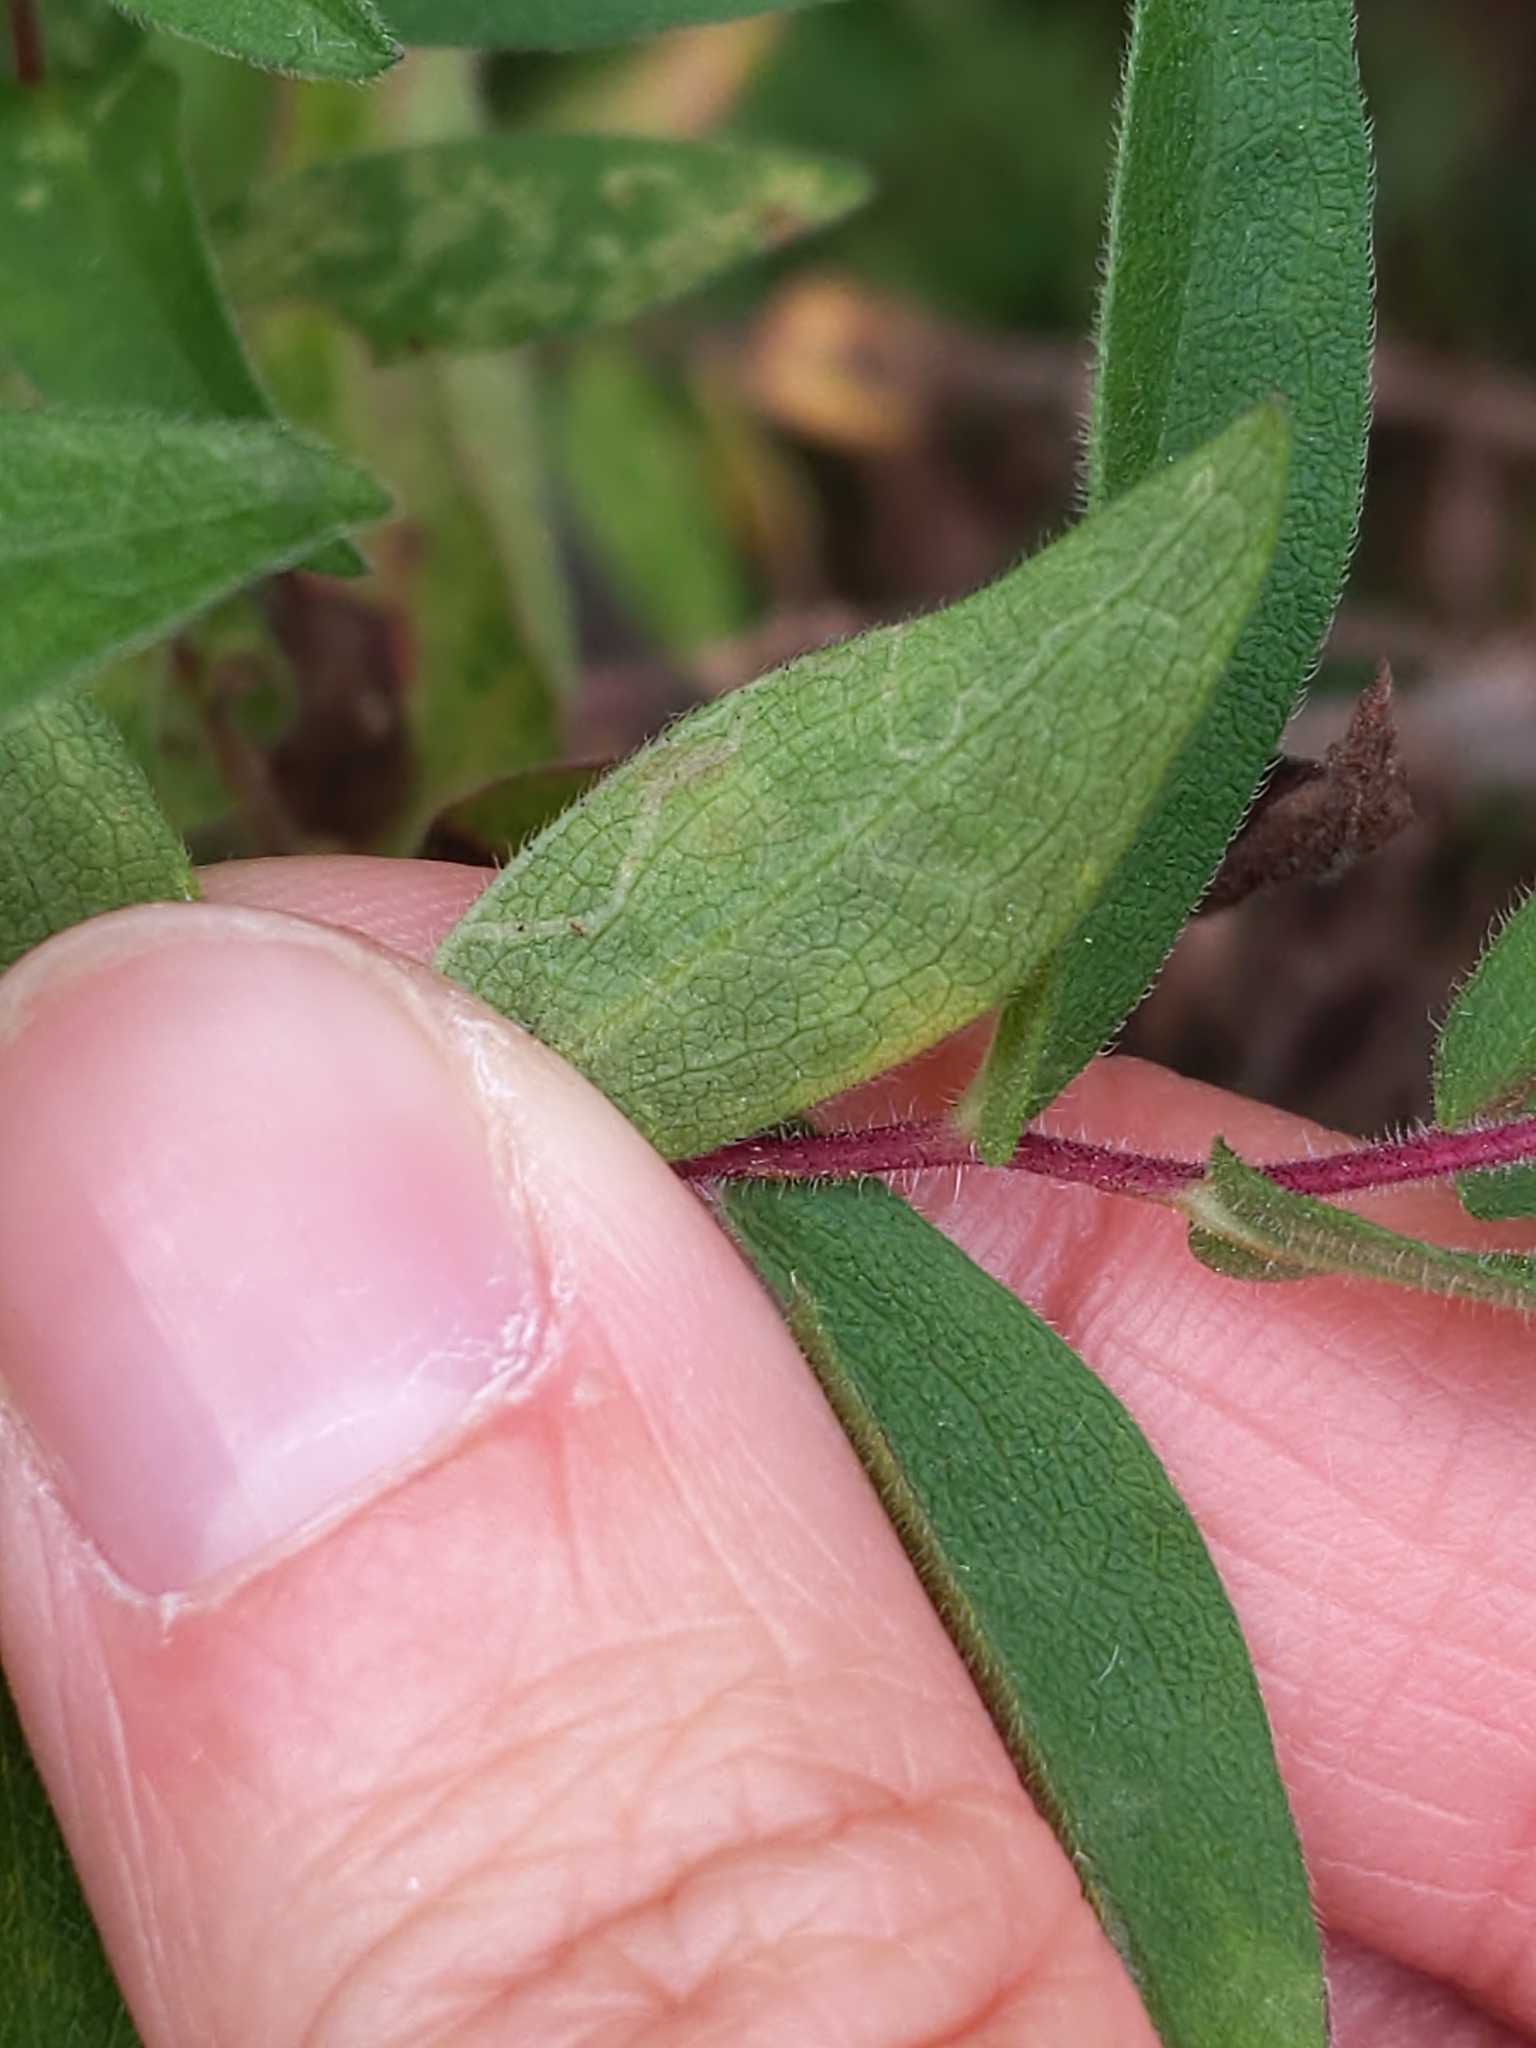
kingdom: Animalia
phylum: Arthropoda
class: Insecta
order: Diptera
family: Agromyzidae
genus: Ophiomyia
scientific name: Ophiomyia parda
